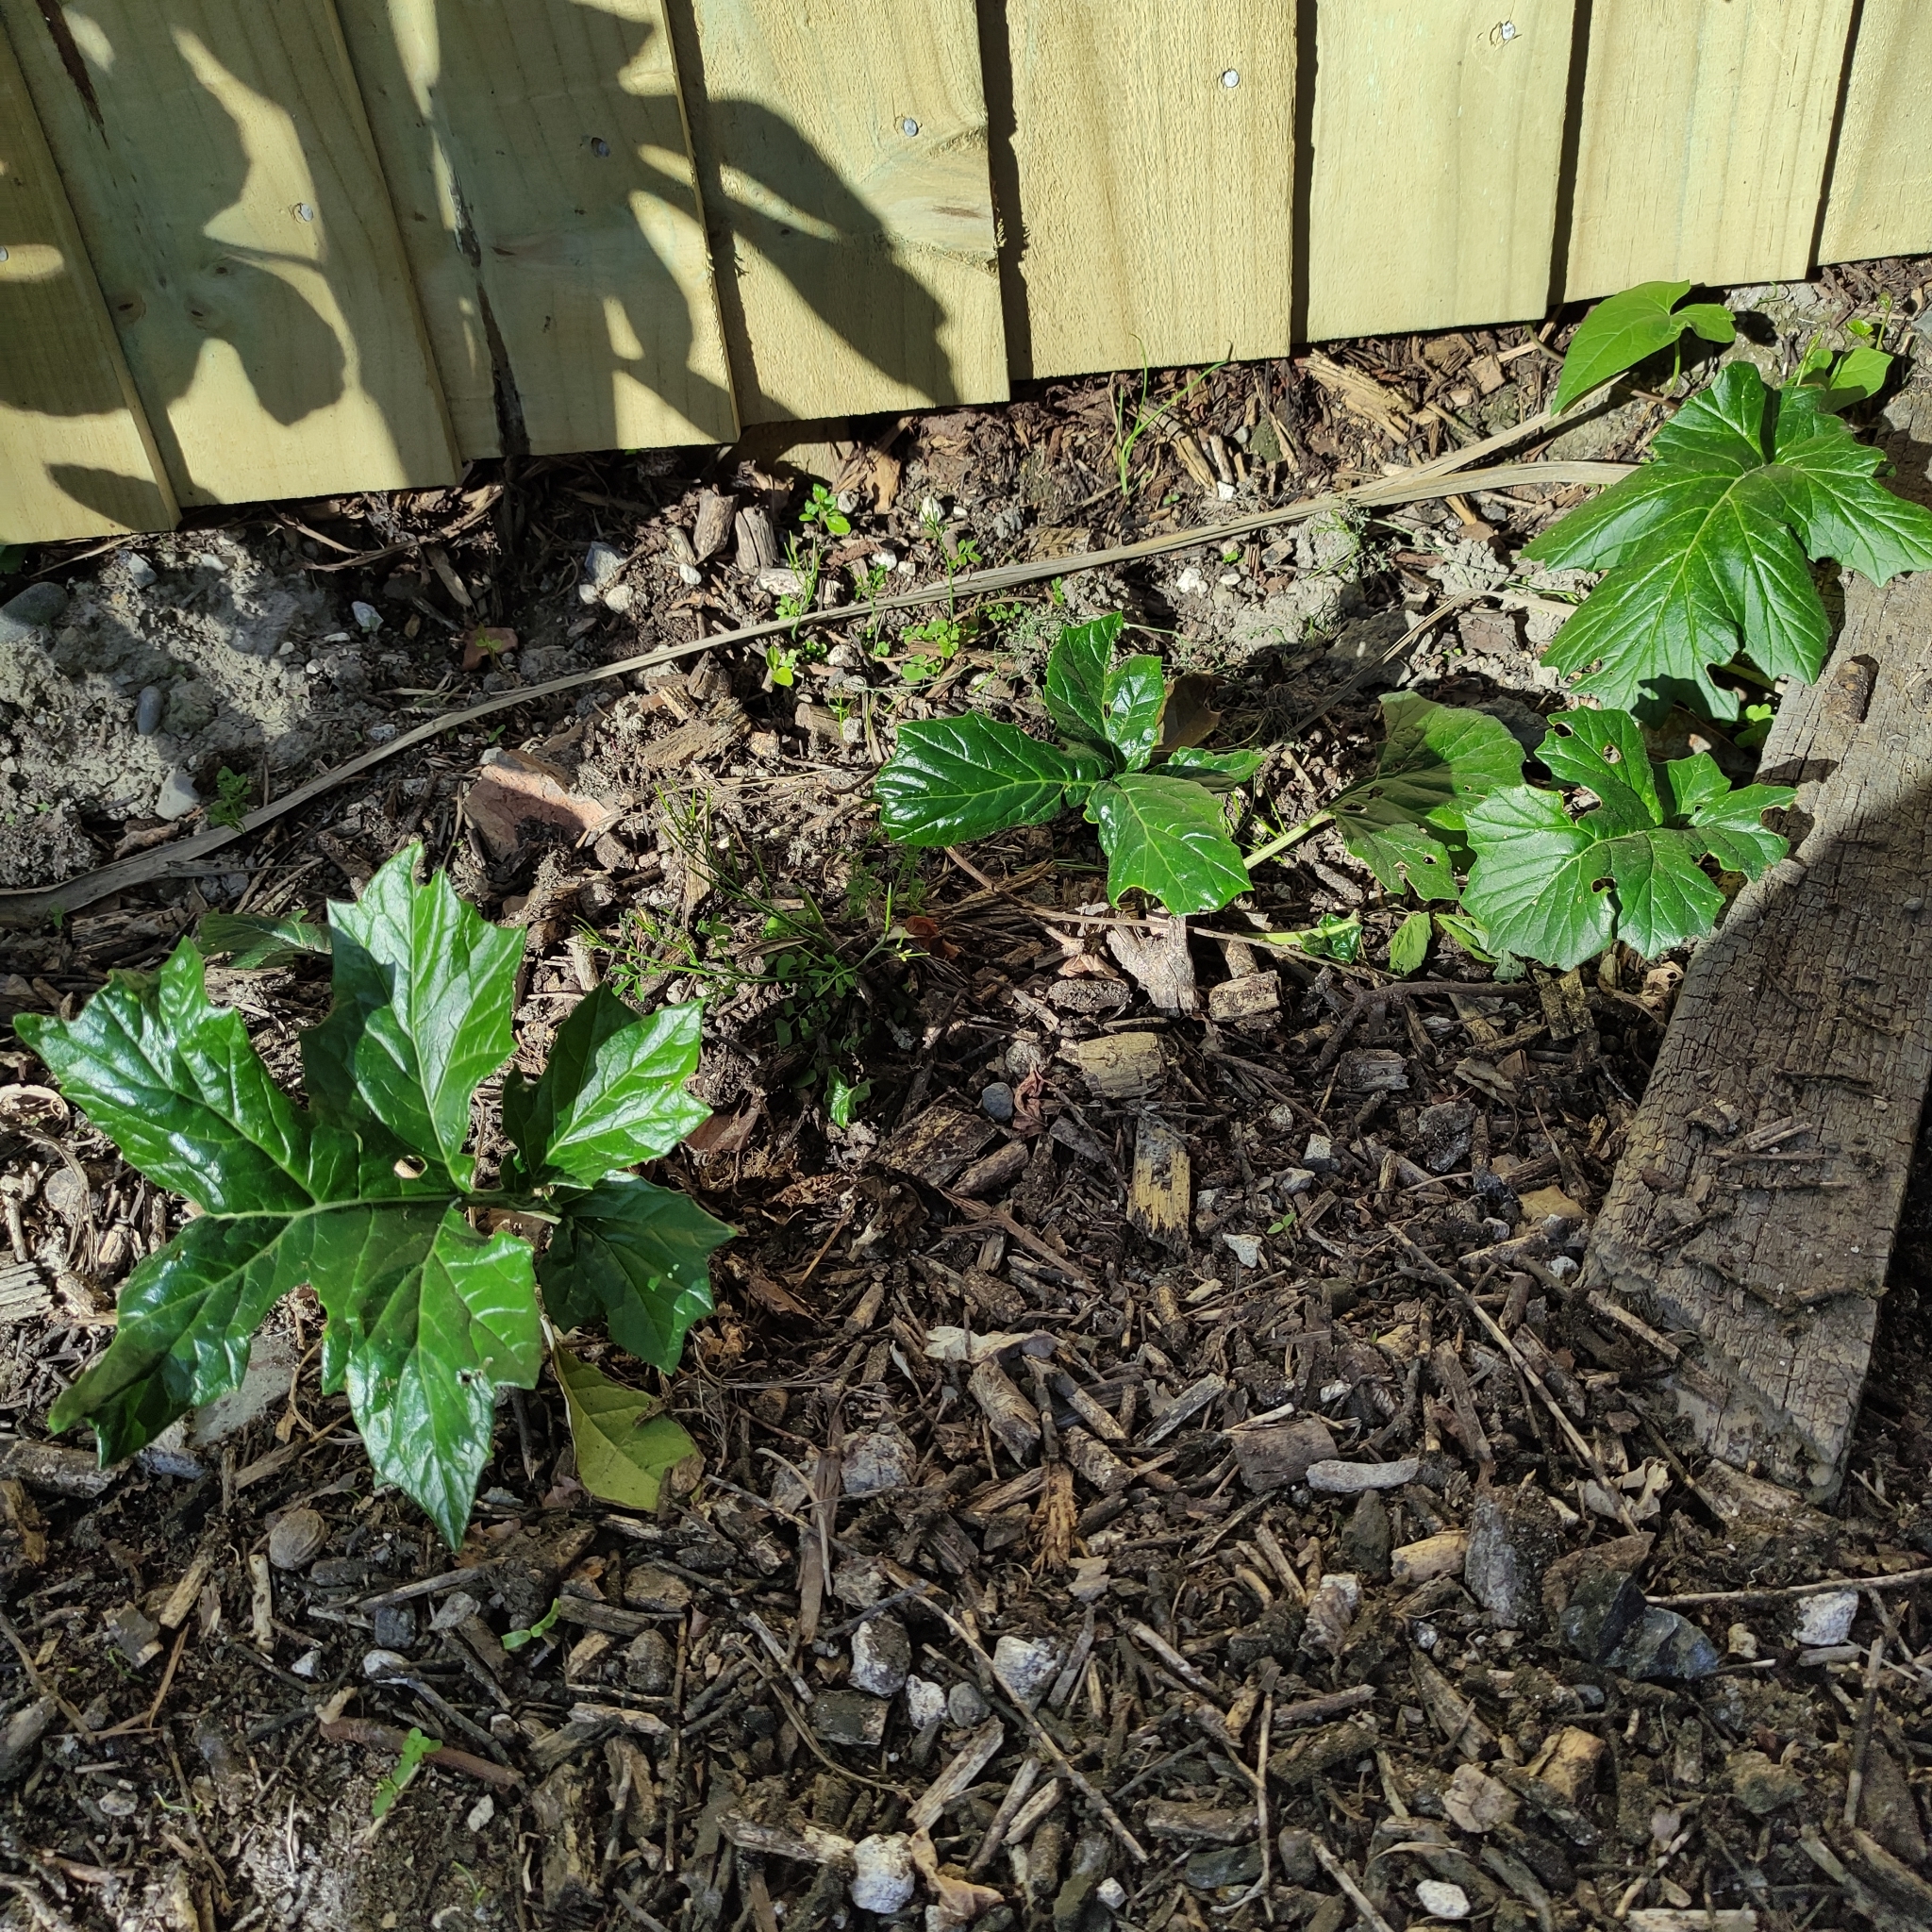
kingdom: Plantae
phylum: Tracheophyta
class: Magnoliopsida
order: Lamiales
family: Acanthaceae
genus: Acanthus
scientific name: Acanthus mollis
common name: Bear's-breech
